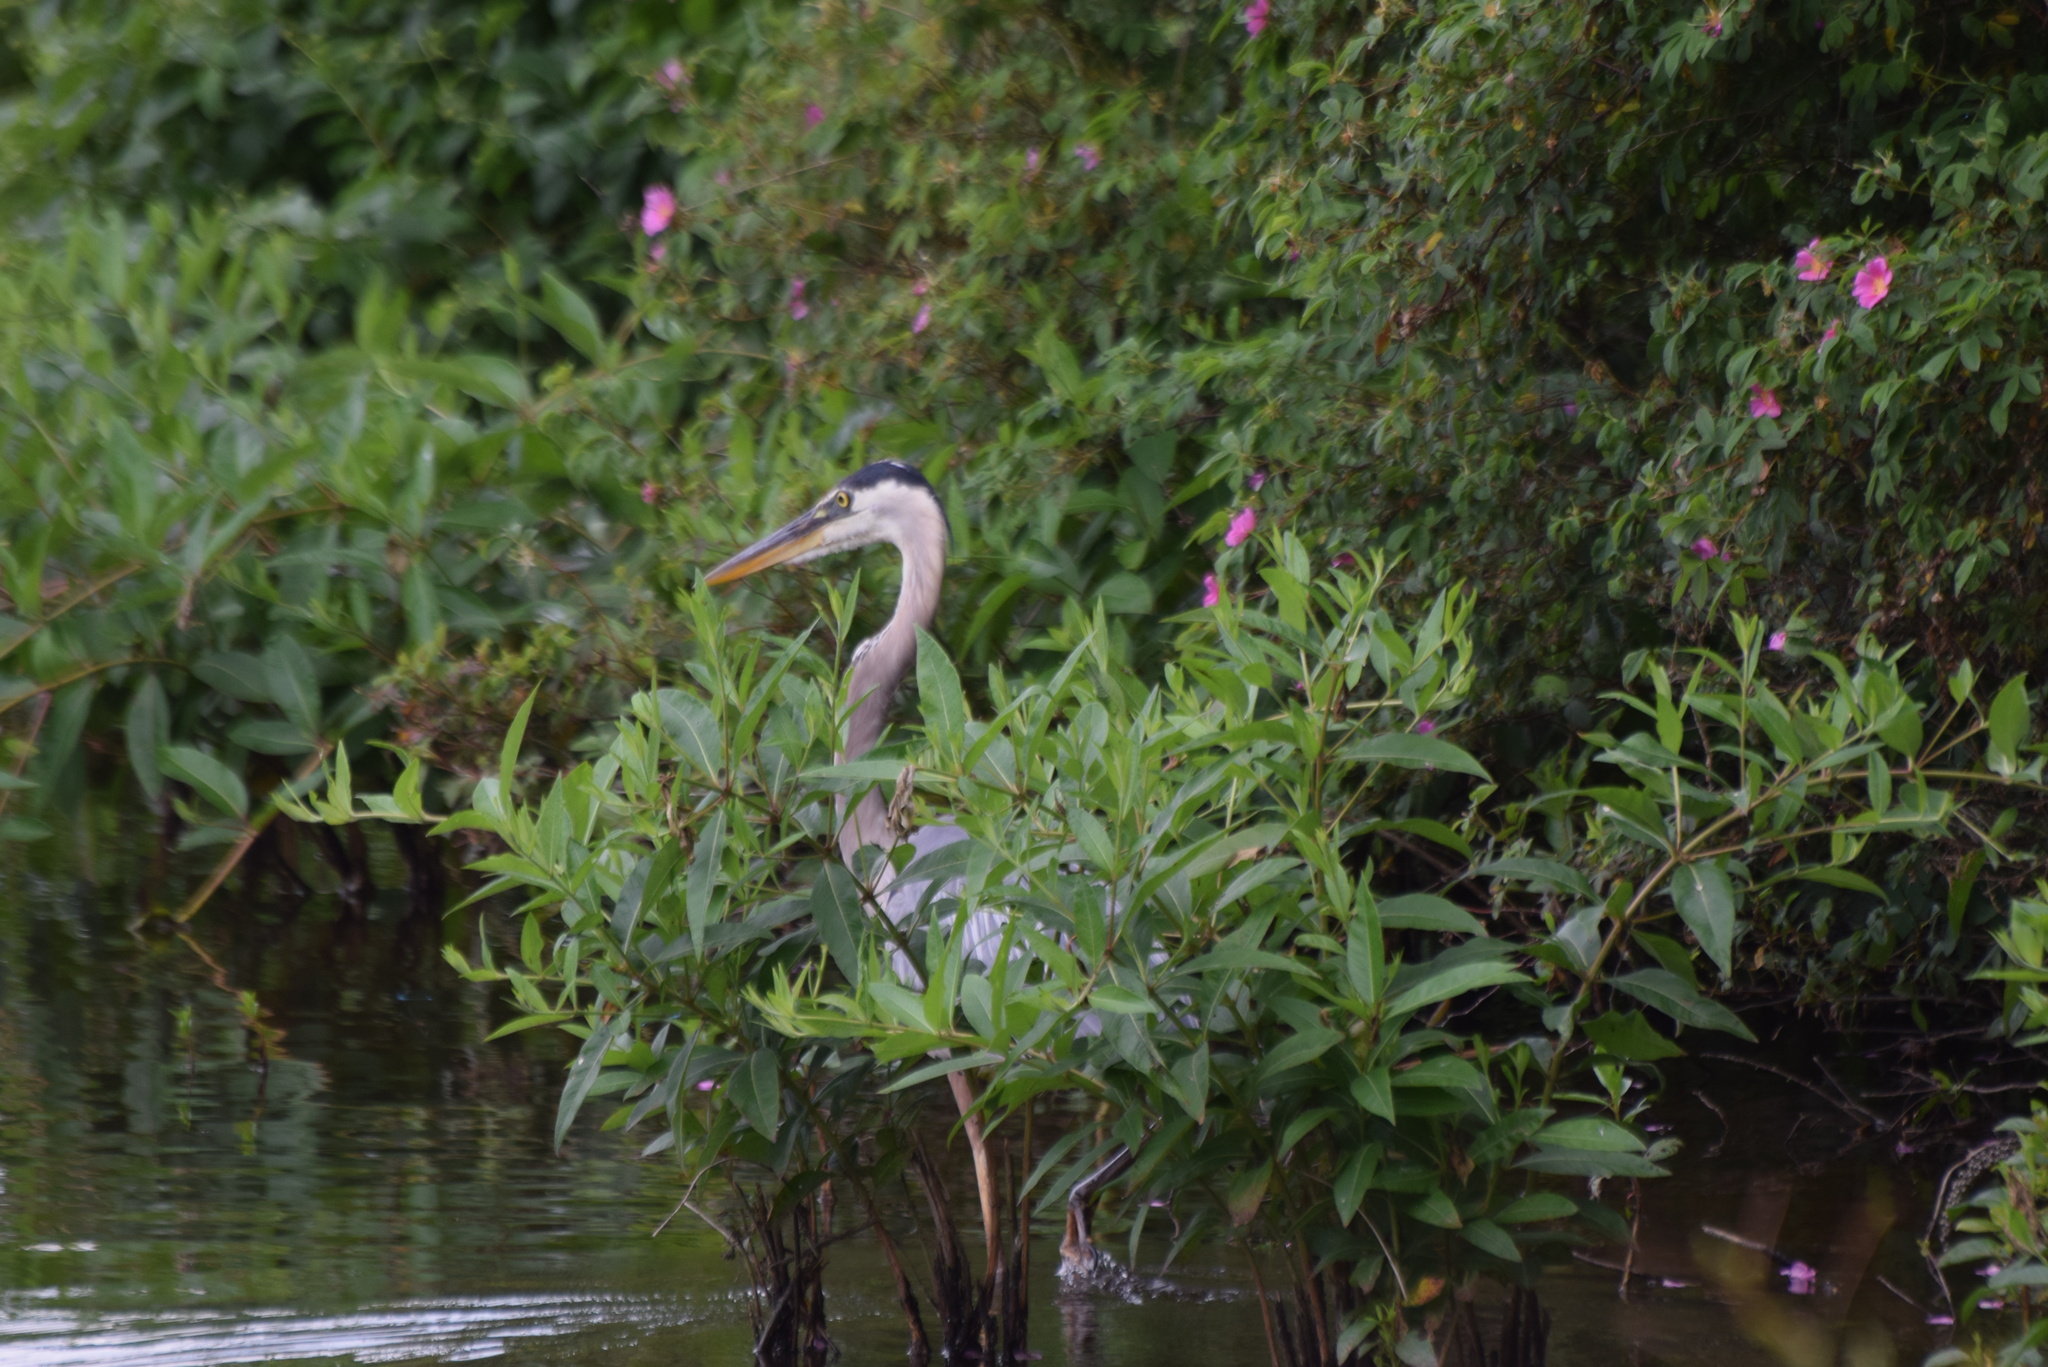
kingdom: Animalia
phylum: Chordata
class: Aves
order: Pelecaniformes
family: Ardeidae
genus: Ardea
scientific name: Ardea herodias
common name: Great blue heron
